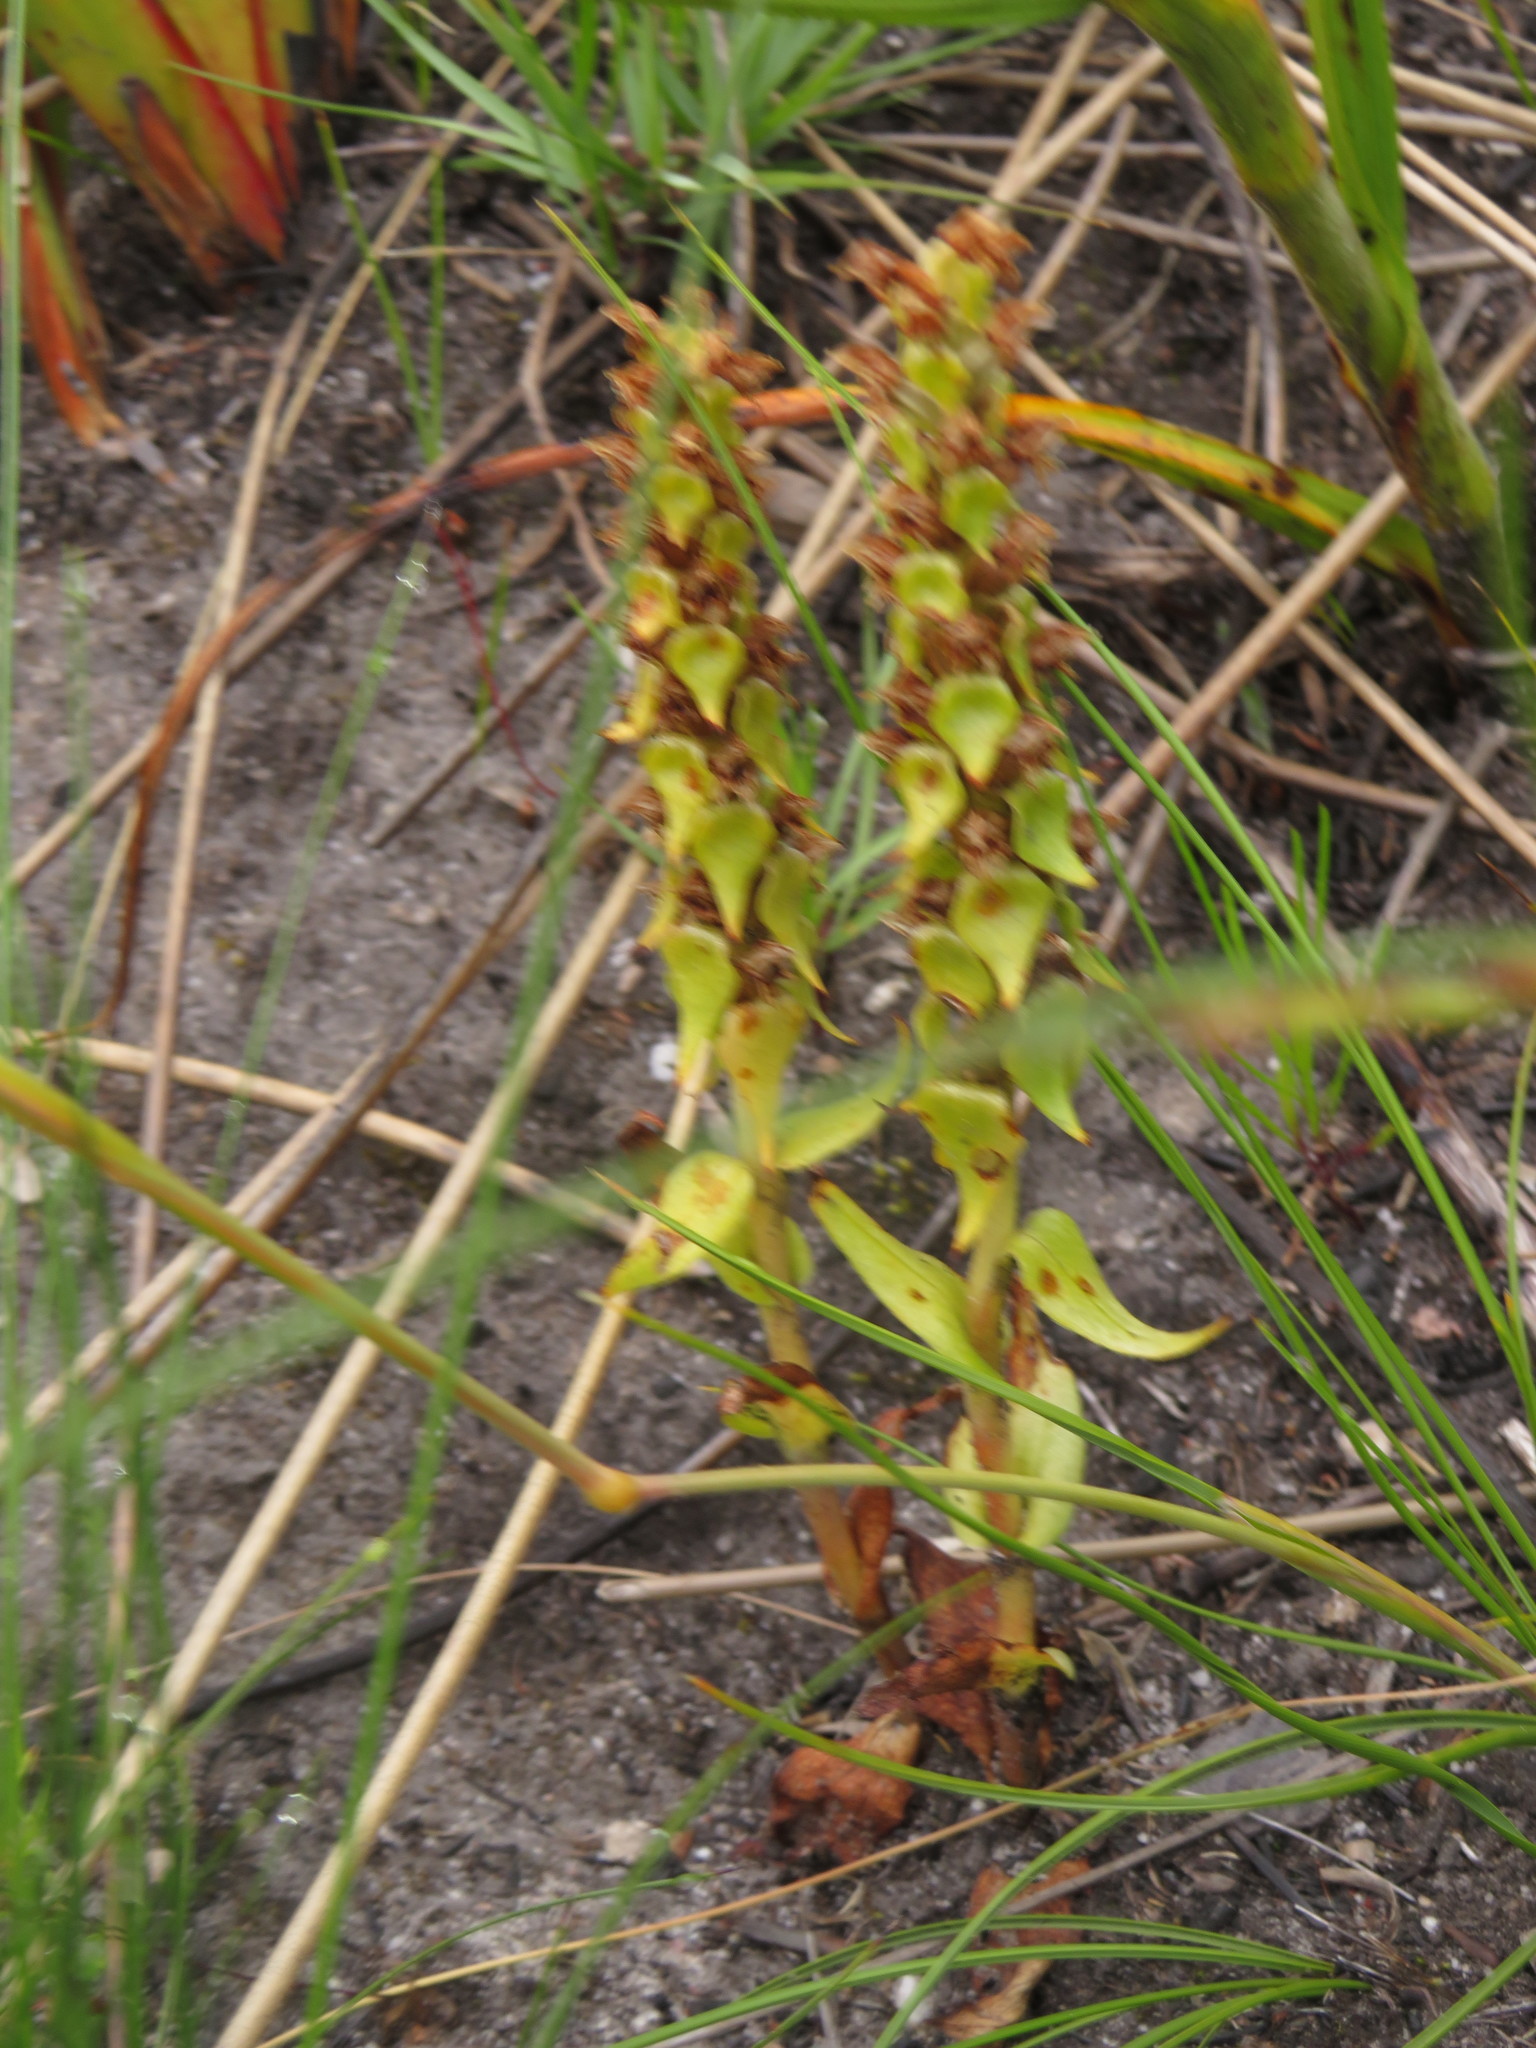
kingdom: Plantae
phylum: Tracheophyta
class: Liliopsida
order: Asparagales
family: Orchidaceae
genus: Satyrium
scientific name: Satyrium bracteatum
